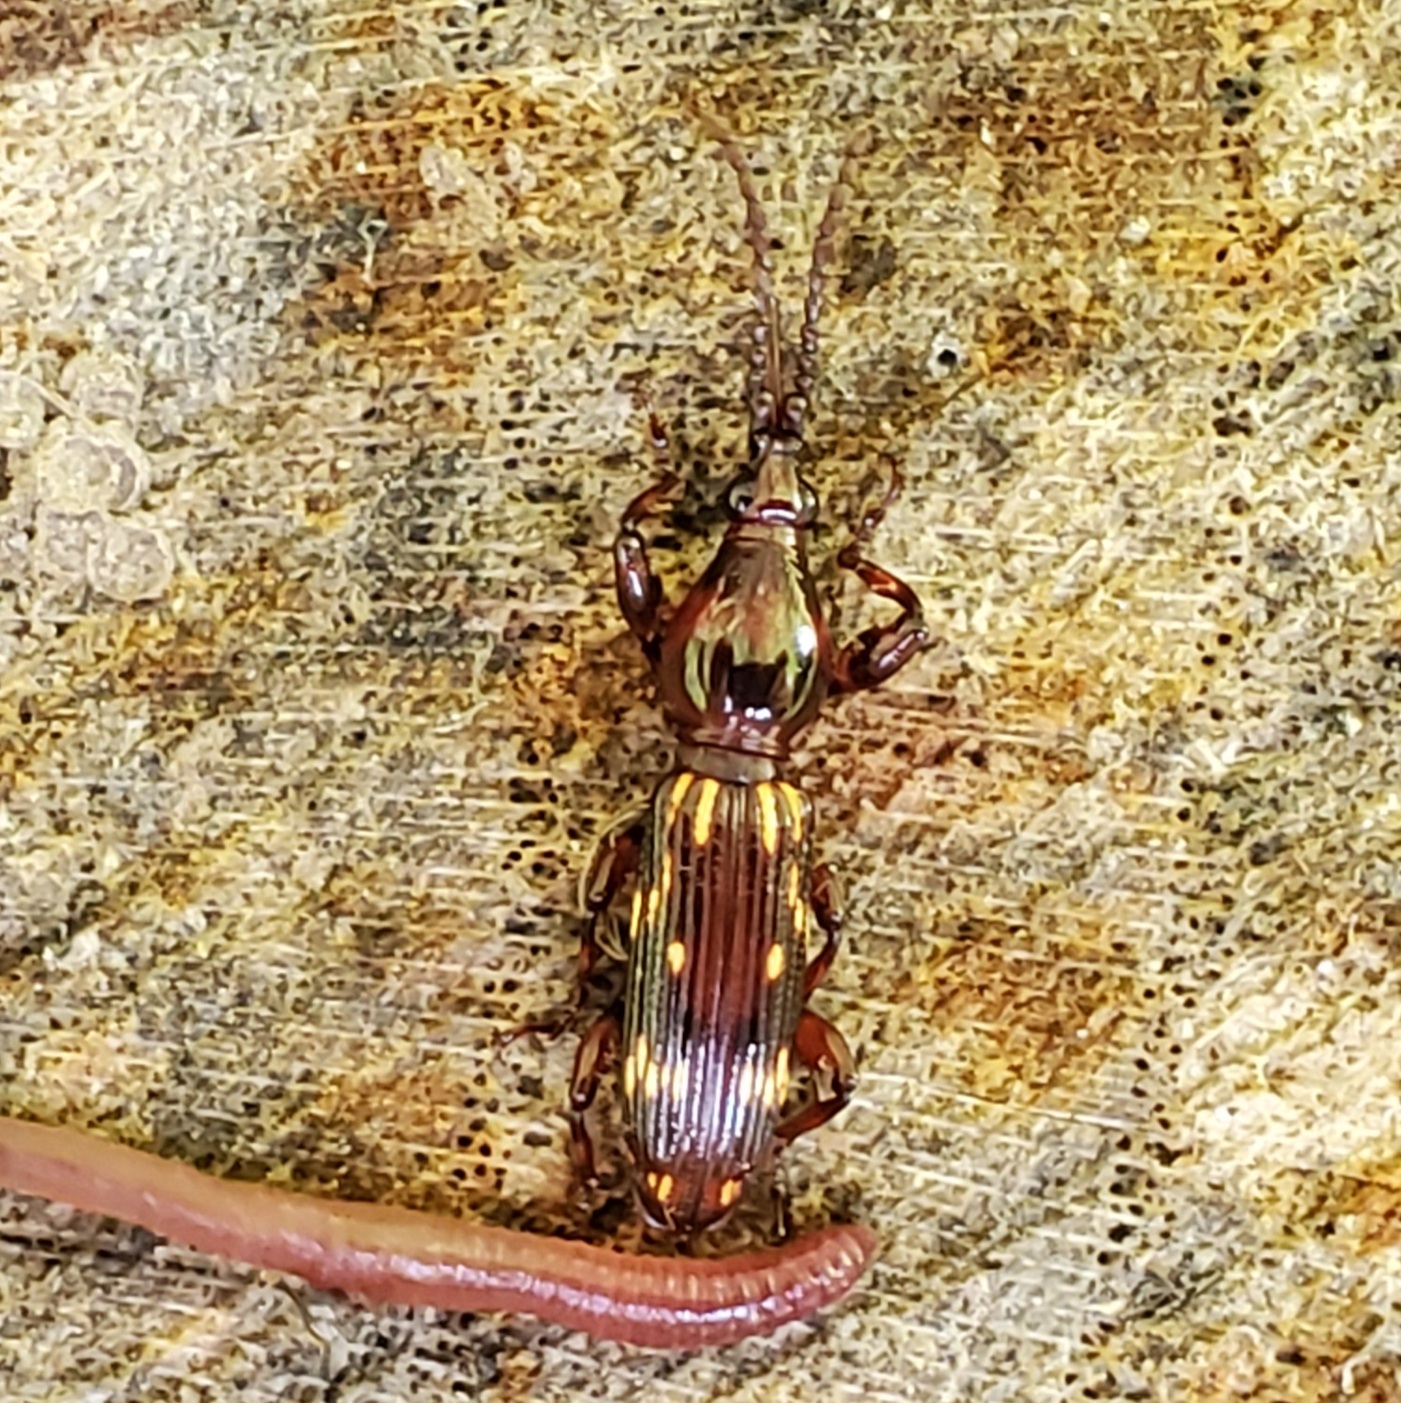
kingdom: Animalia
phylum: Arthropoda
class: Insecta
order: Coleoptera
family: Brentidae
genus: Arrenodes
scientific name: Arrenodes minutus
